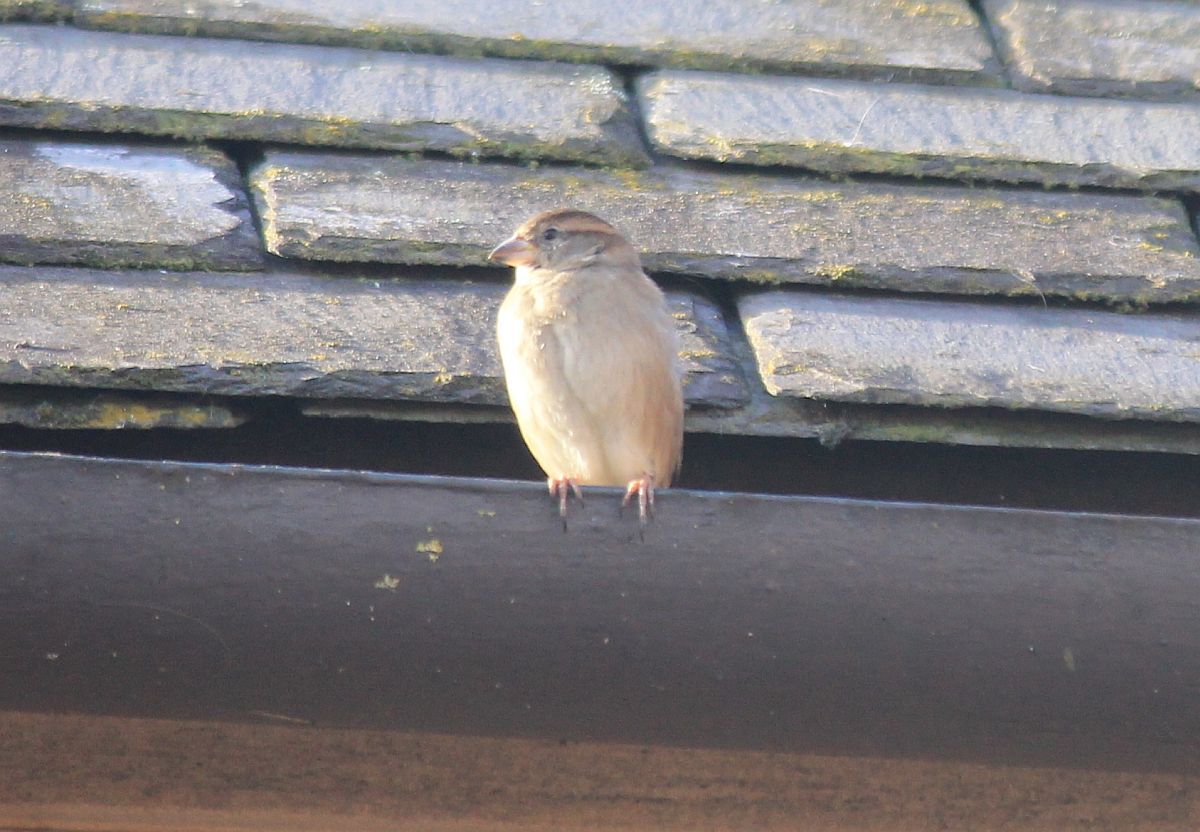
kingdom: Animalia
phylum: Chordata
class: Aves
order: Passeriformes
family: Passeridae
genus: Passer
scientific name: Passer domesticus
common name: House sparrow
